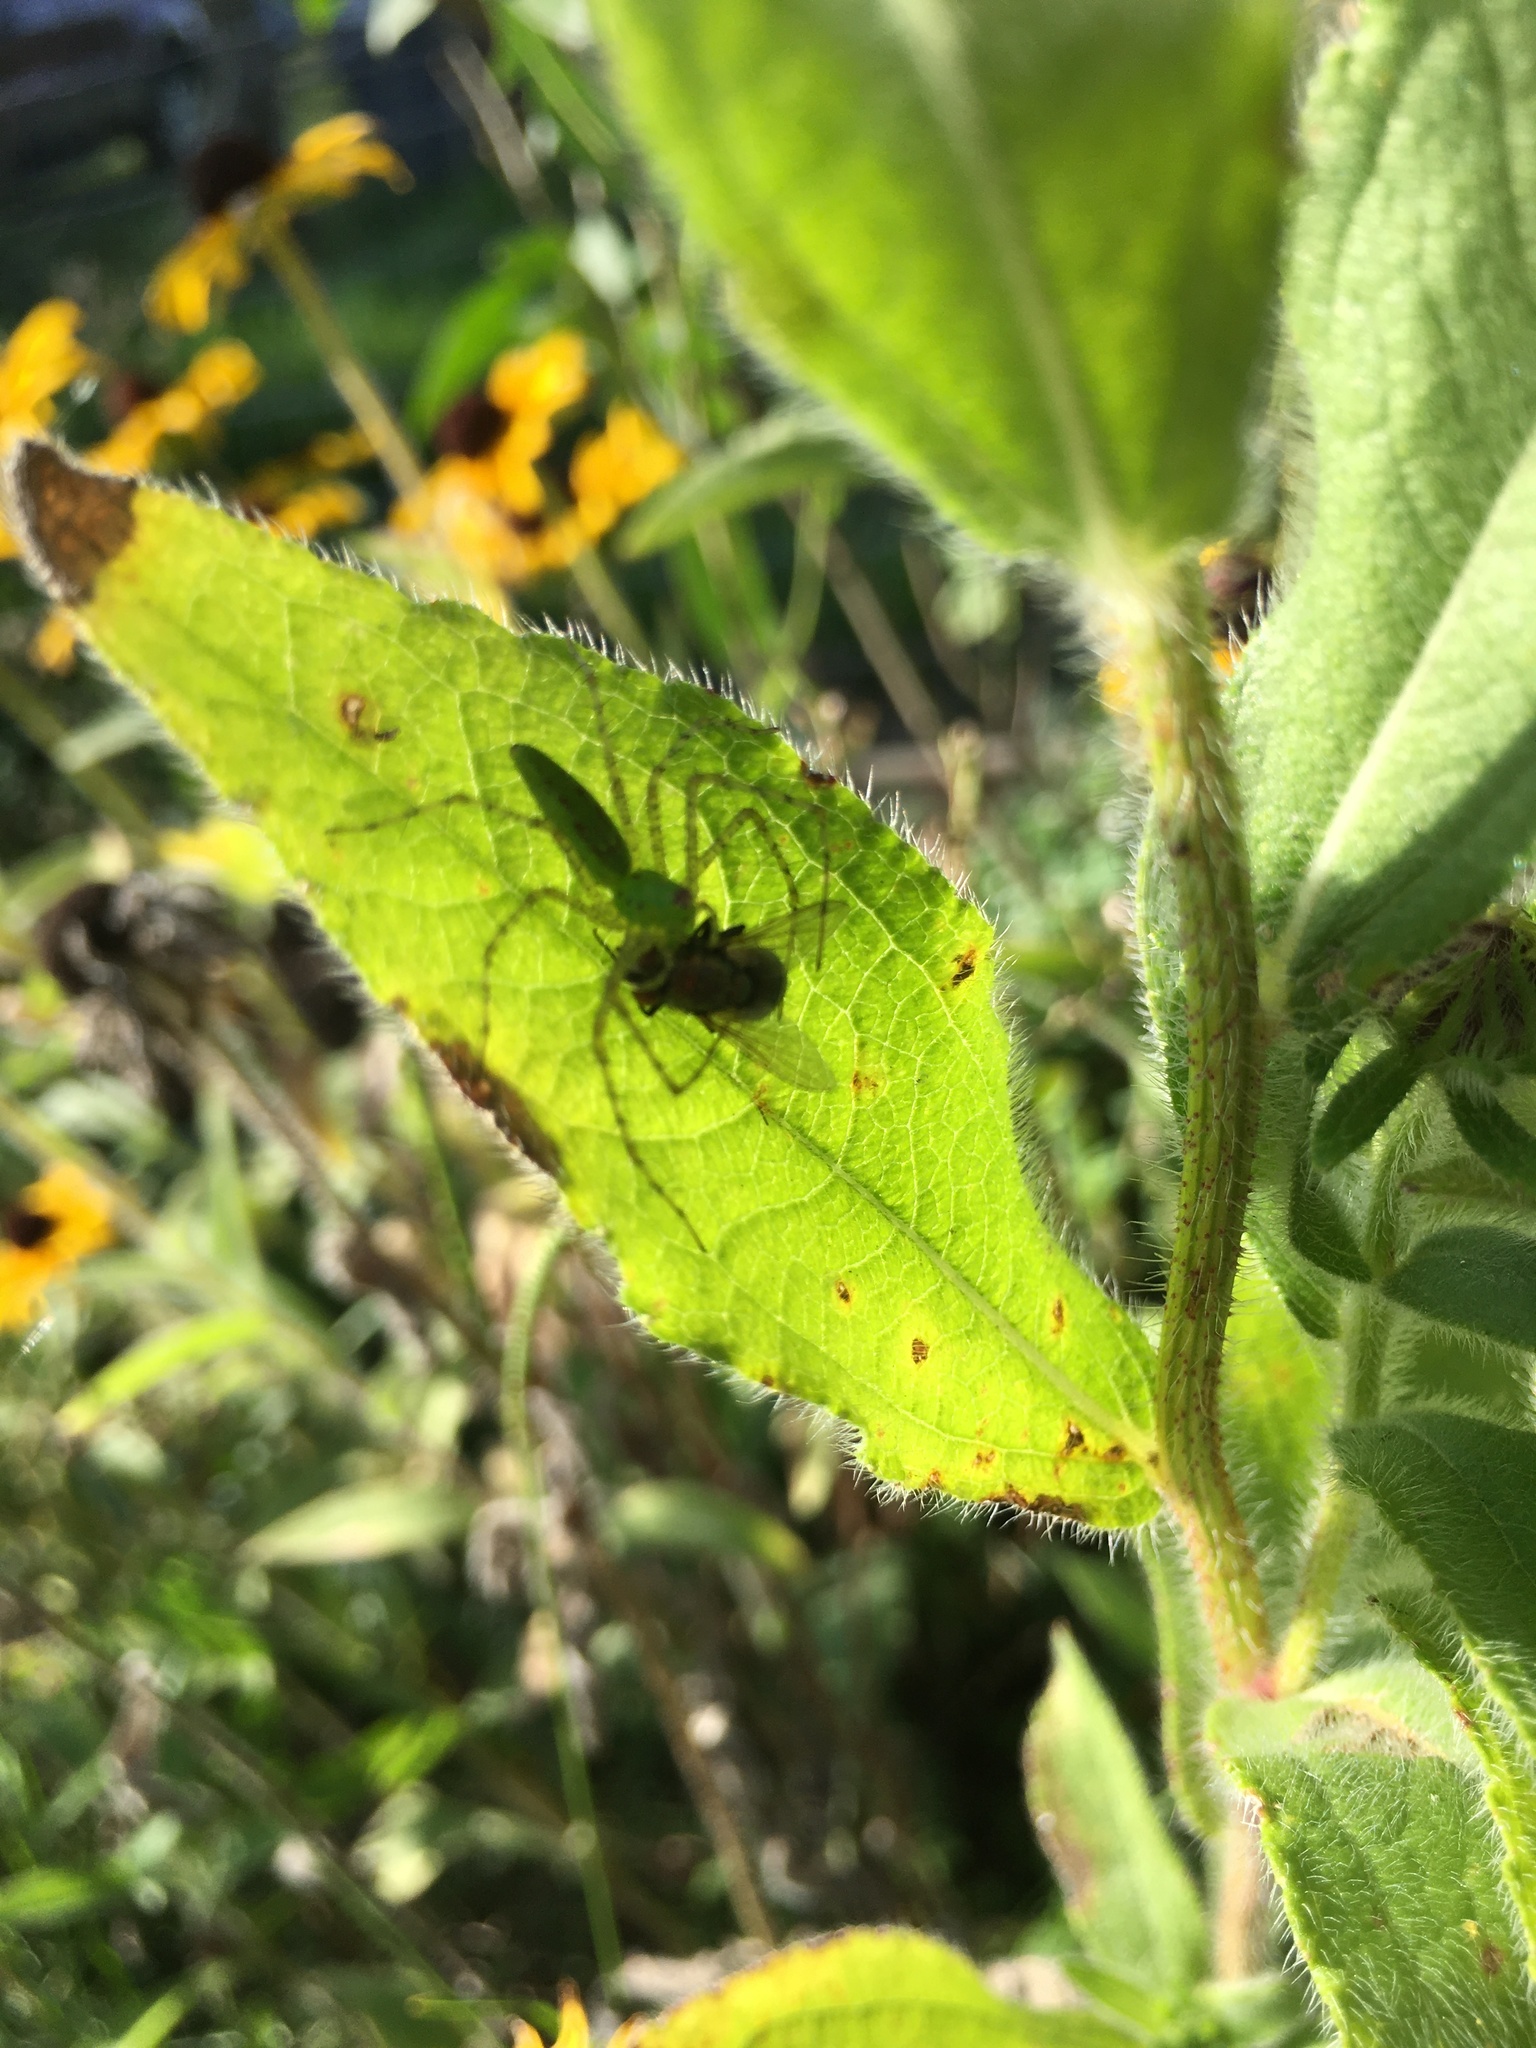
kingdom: Animalia
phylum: Arthropoda
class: Arachnida
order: Araneae
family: Oxyopidae
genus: Peucetia
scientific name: Peucetia viridans
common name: Lynx spiders
